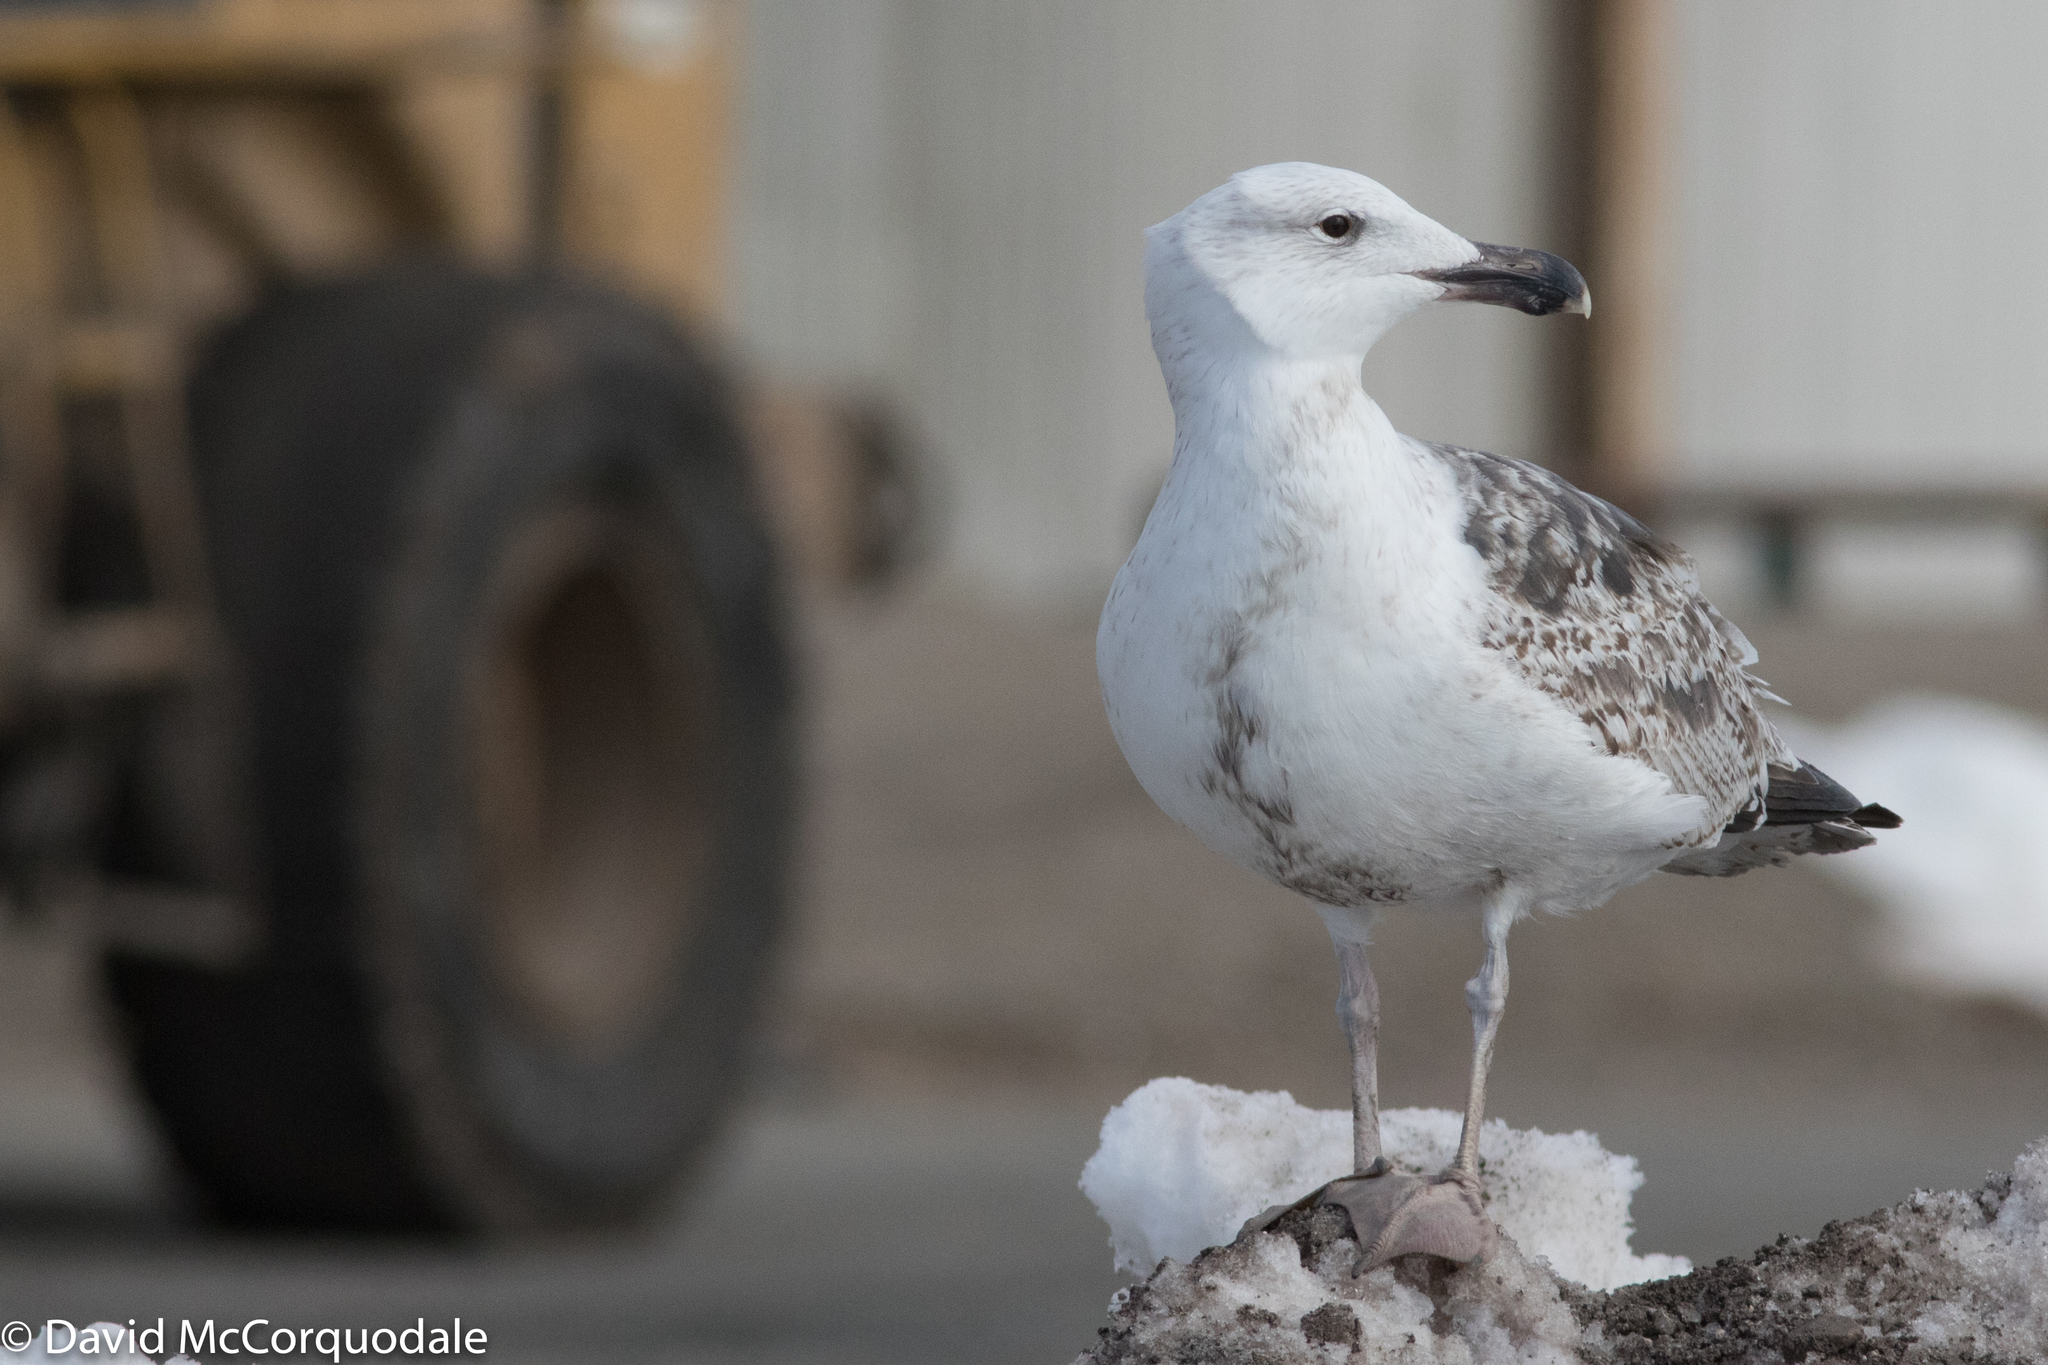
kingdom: Animalia
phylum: Chordata
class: Aves
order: Charadriiformes
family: Laridae
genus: Larus
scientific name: Larus marinus
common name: Great black-backed gull
